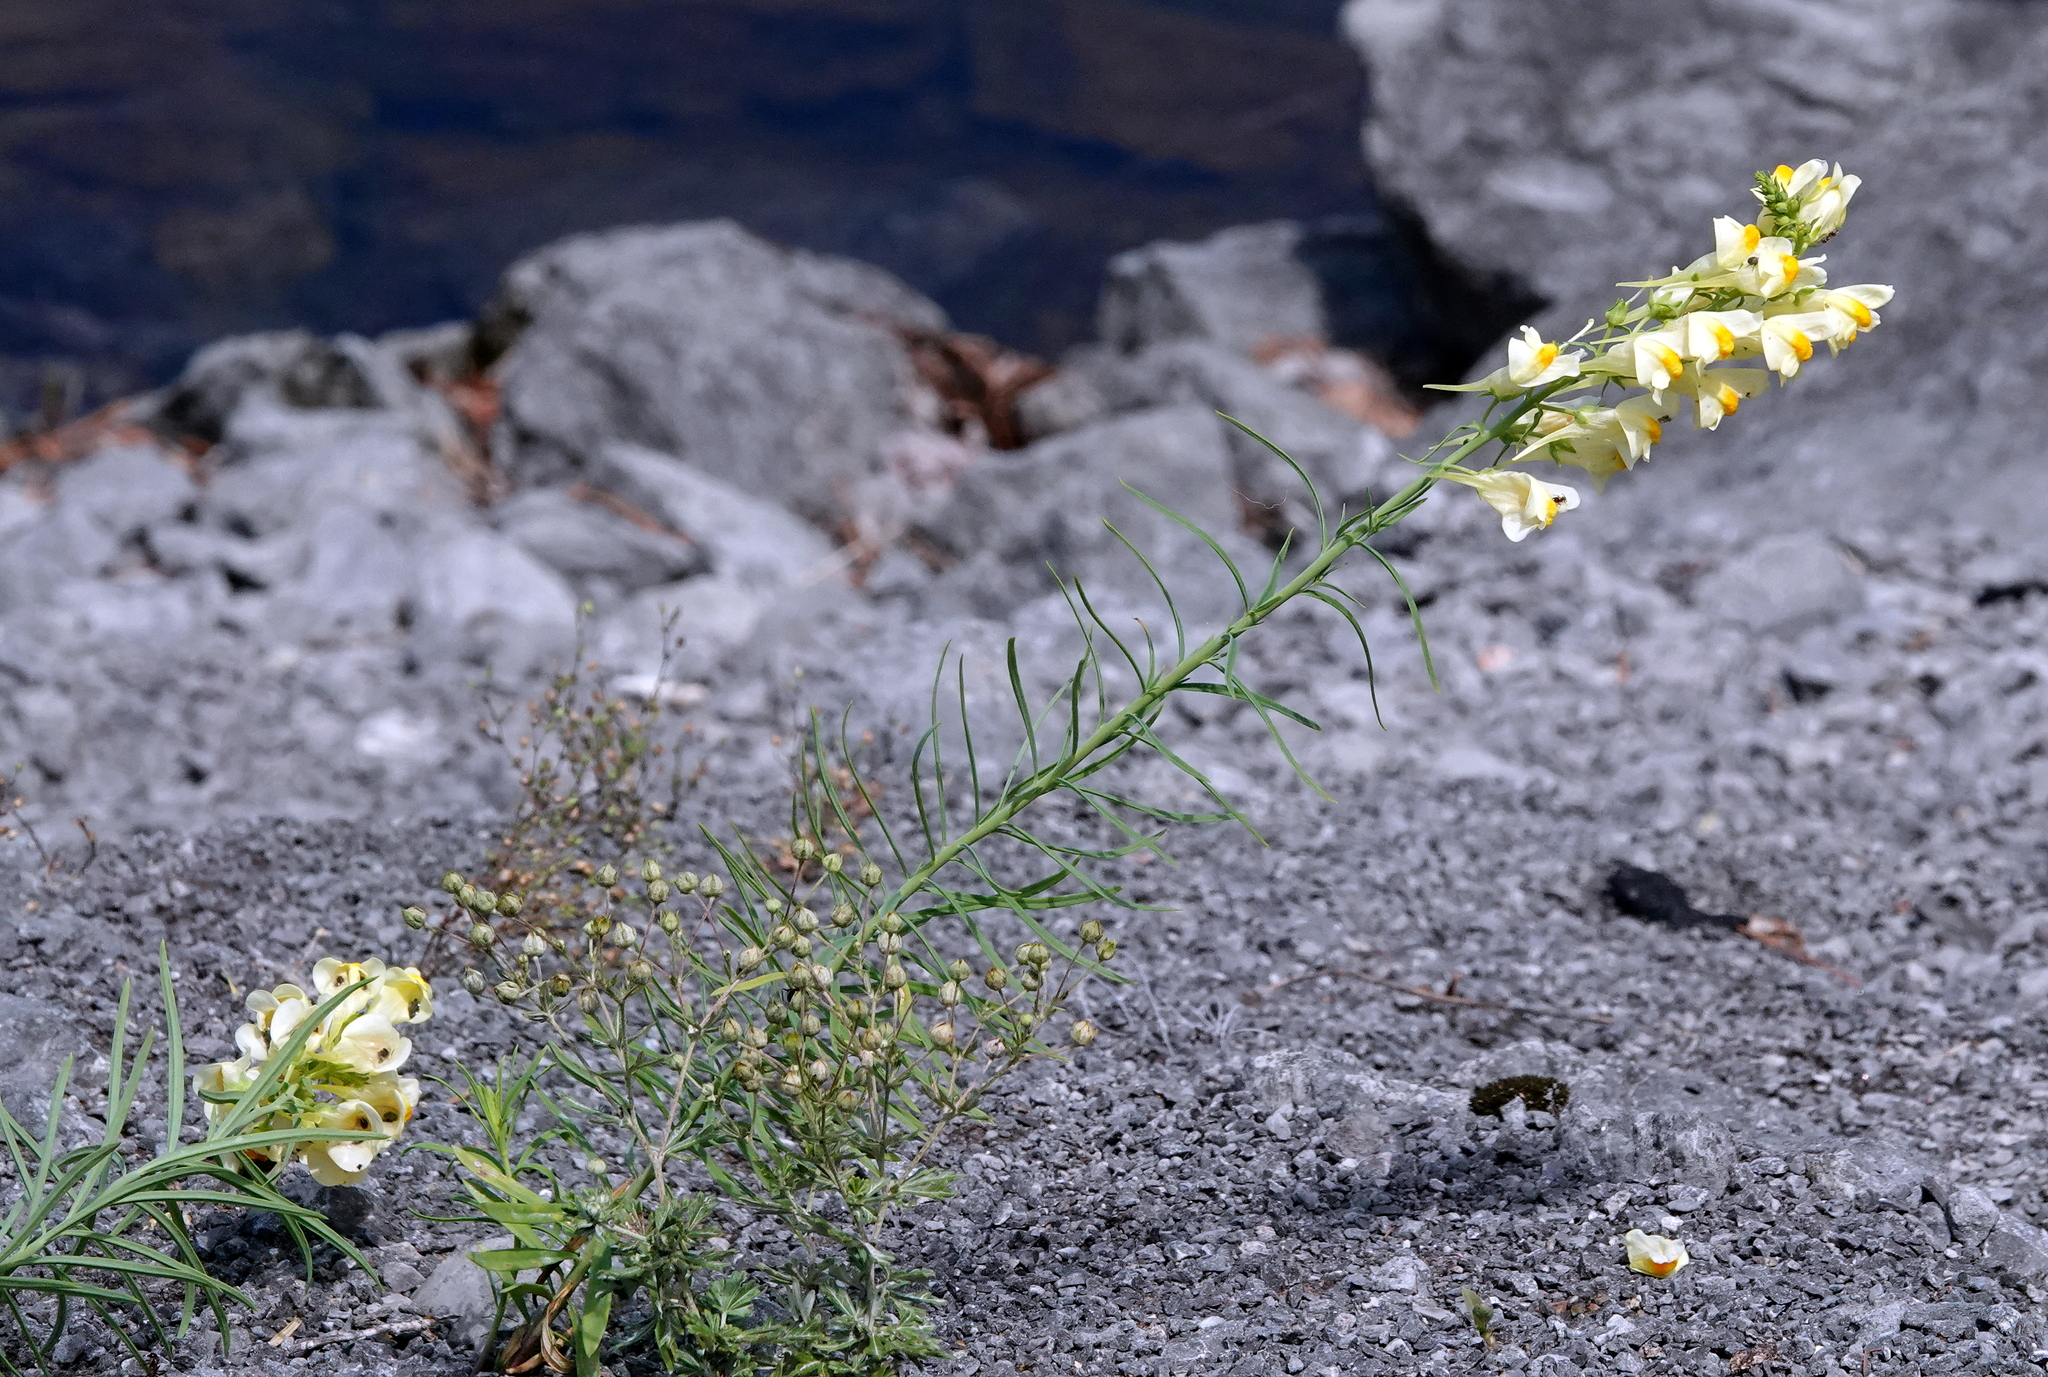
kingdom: Plantae
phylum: Tracheophyta
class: Magnoliopsida
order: Lamiales
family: Plantaginaceae
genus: Linaria
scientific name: Linaria vulgaris
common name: Butter and eggs
